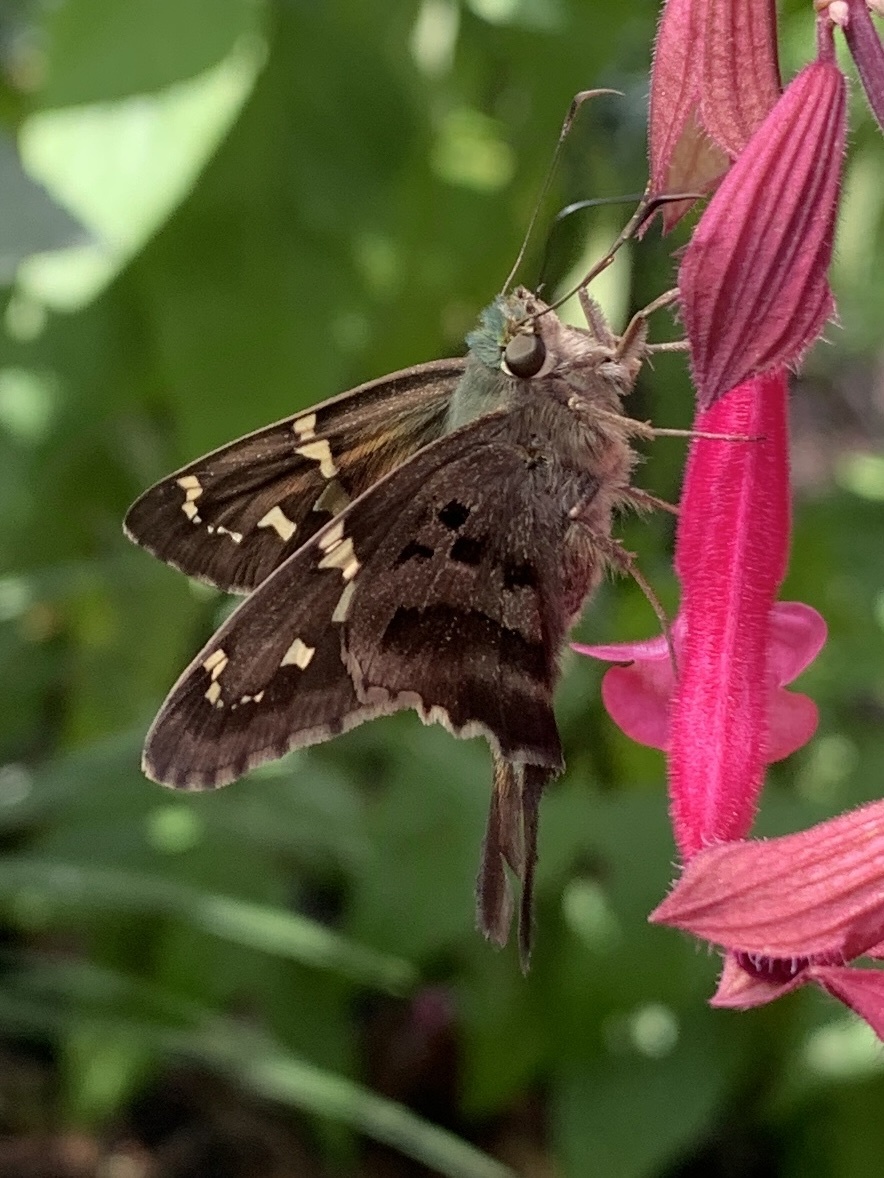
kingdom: Animalia
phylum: Arthropoda
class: Insecta
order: Lepidoptera
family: Hesperiidae
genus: Urbanus
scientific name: Urbanus proteus
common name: Long-tailed skipper
